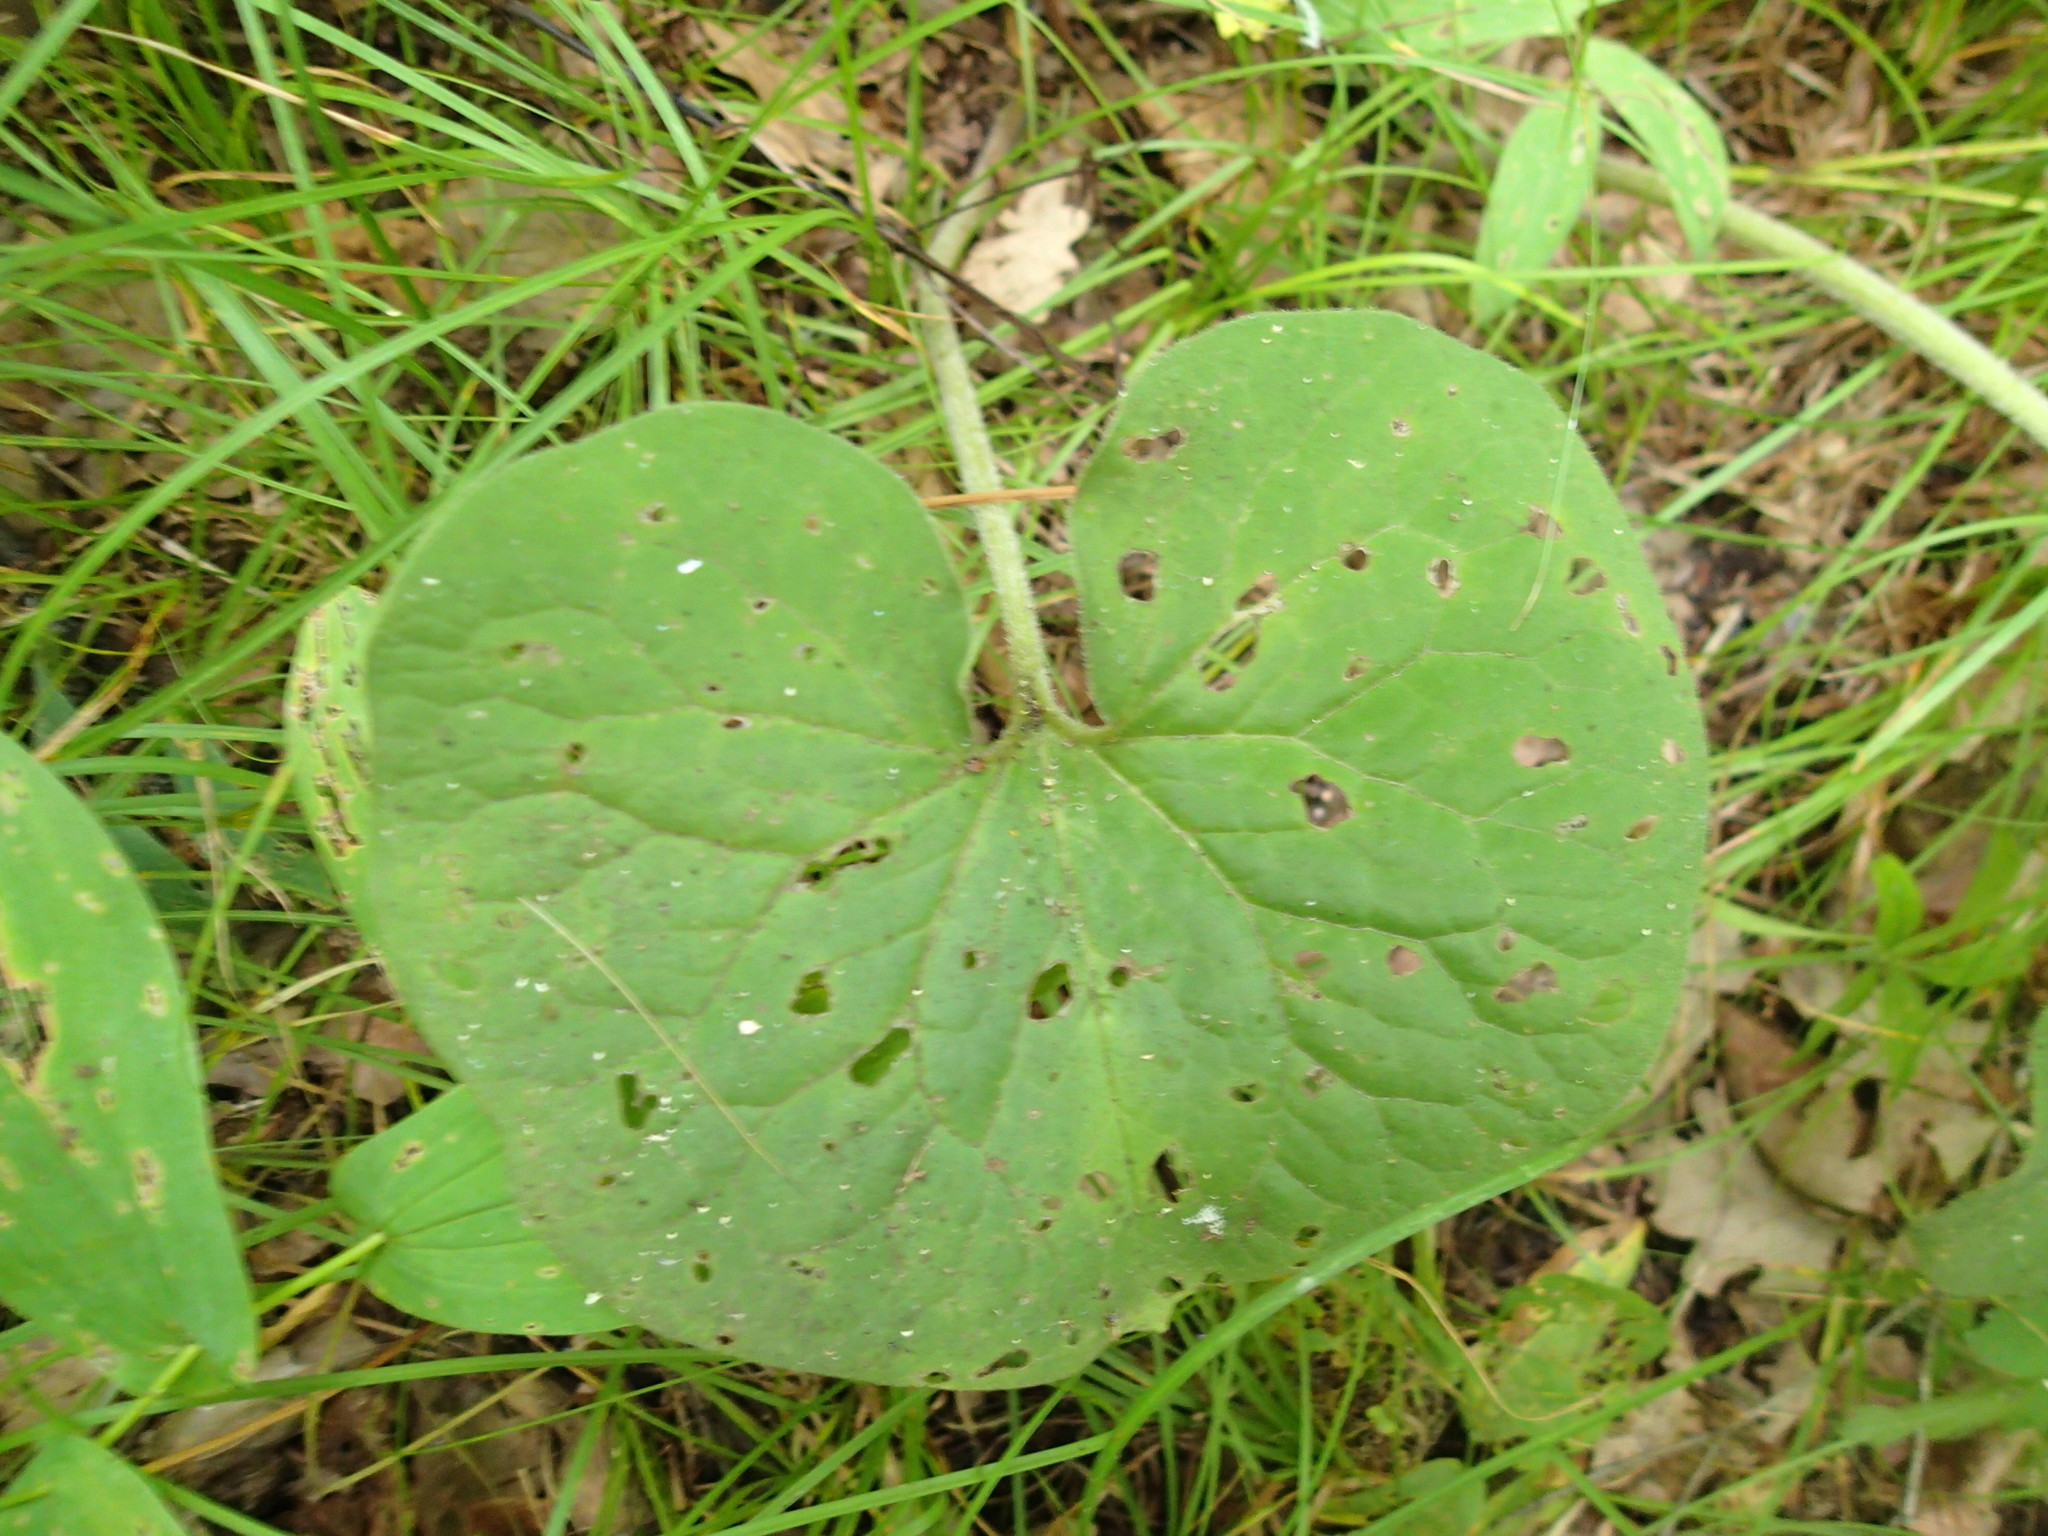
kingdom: Plantae
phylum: Tracheophyta
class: Magnoliopsida
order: Piperales
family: Aristolochiaceae
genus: Asarum
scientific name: Asarum canadense
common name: Wild ginger
